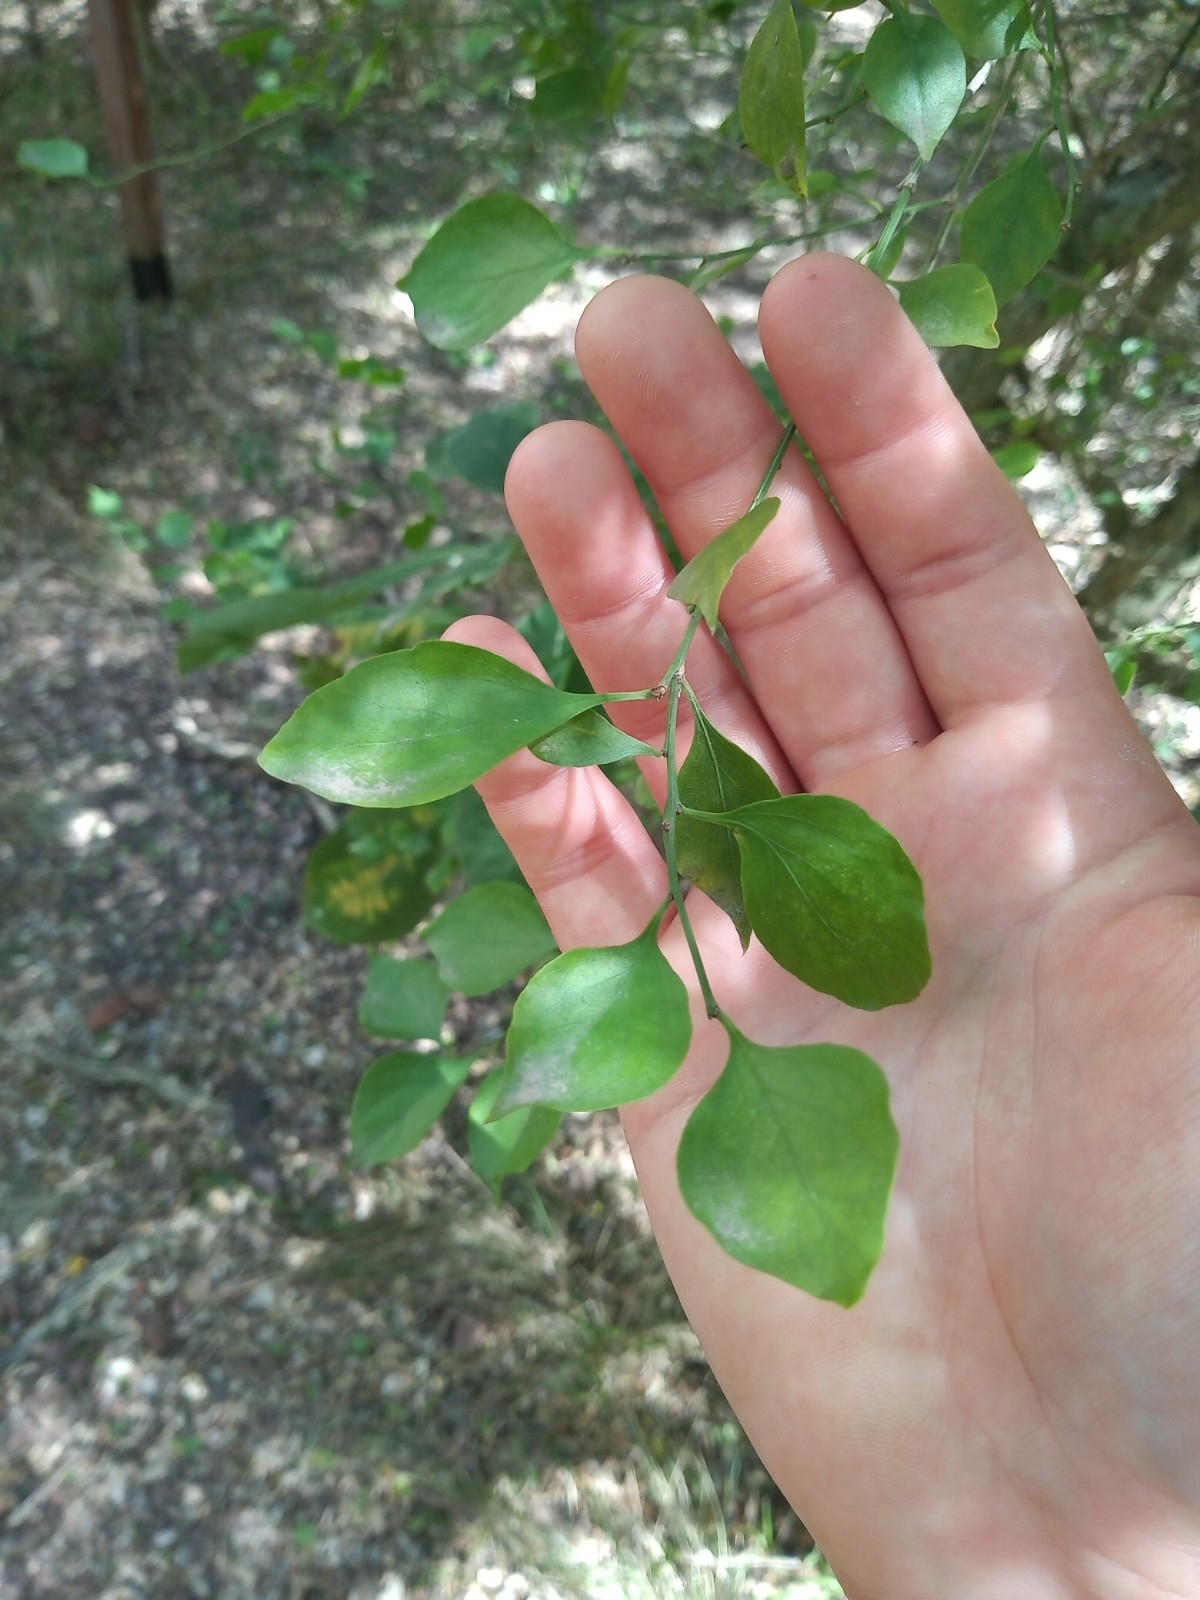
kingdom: Plantae
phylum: Tracheophyta
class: Magnoliopsida
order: Caryophyllales
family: Achatocarpaceae
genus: Achatocarpus
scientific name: Achatocarpus praecox
